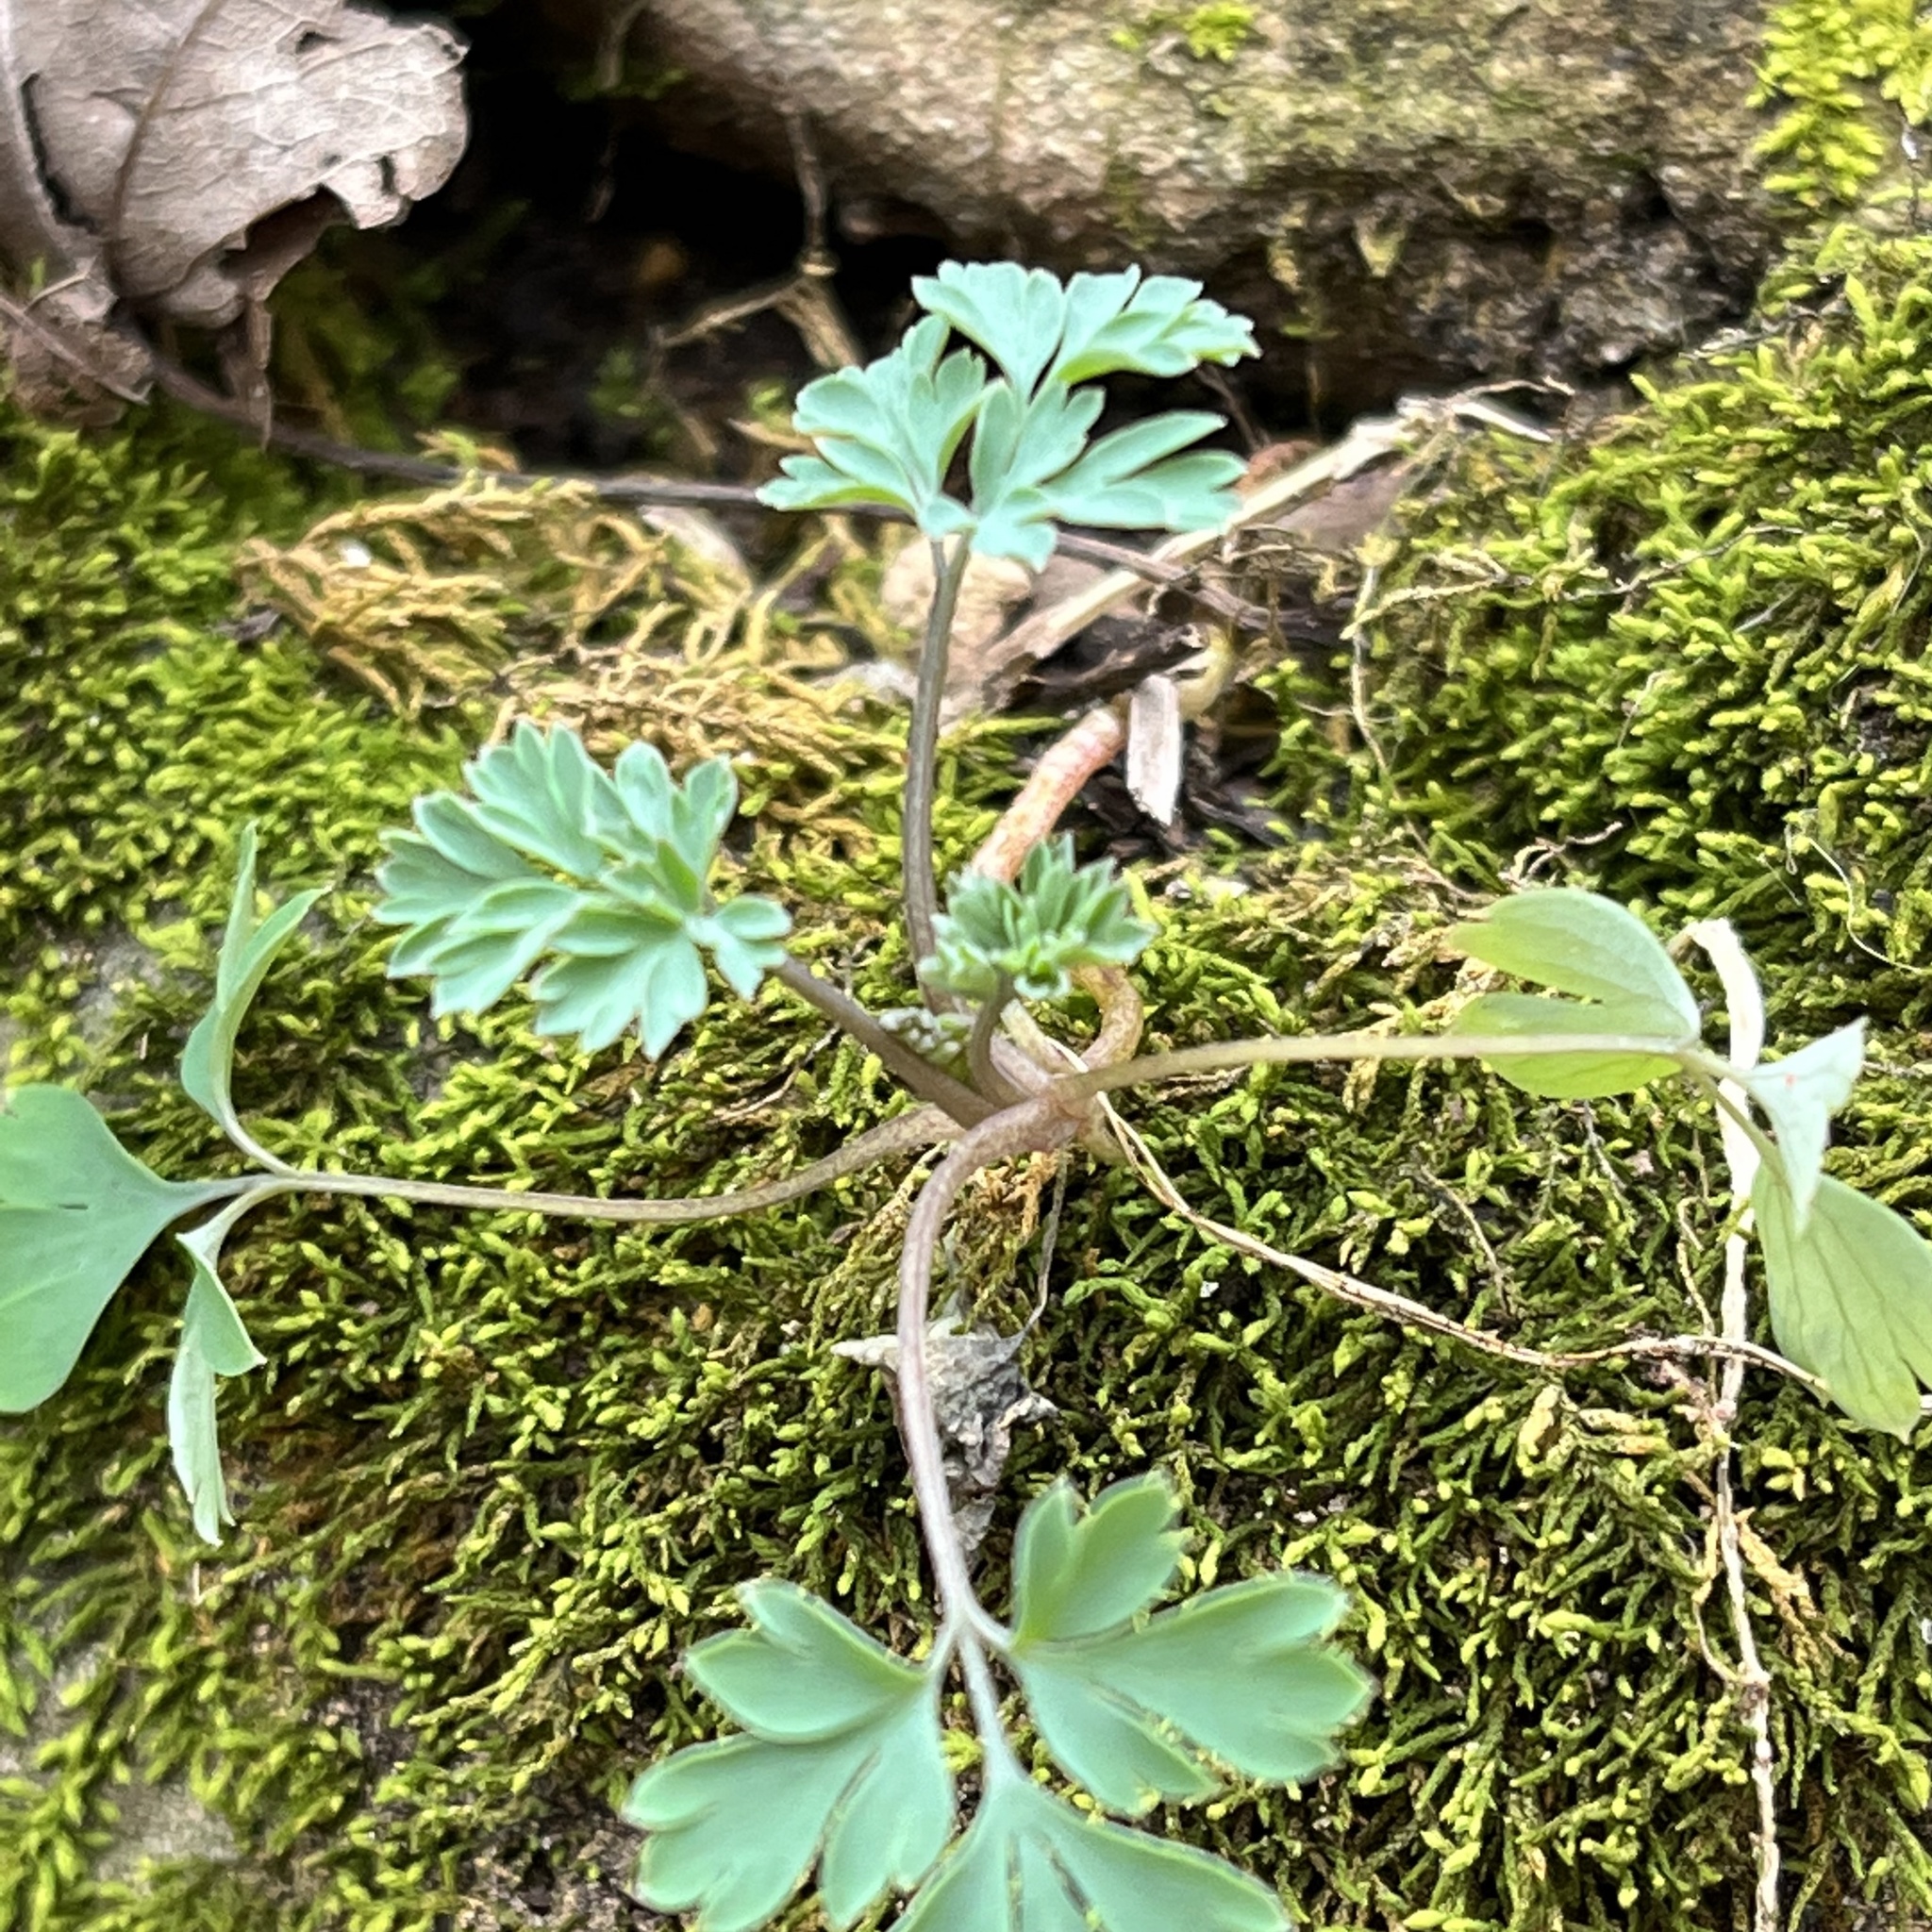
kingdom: Plantae
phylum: Tracheophyta
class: Magnoliopsida
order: Ranunculales
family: Papaveraceae
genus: Corydalis
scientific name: Corydalis flavula
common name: Yellow corydalis
